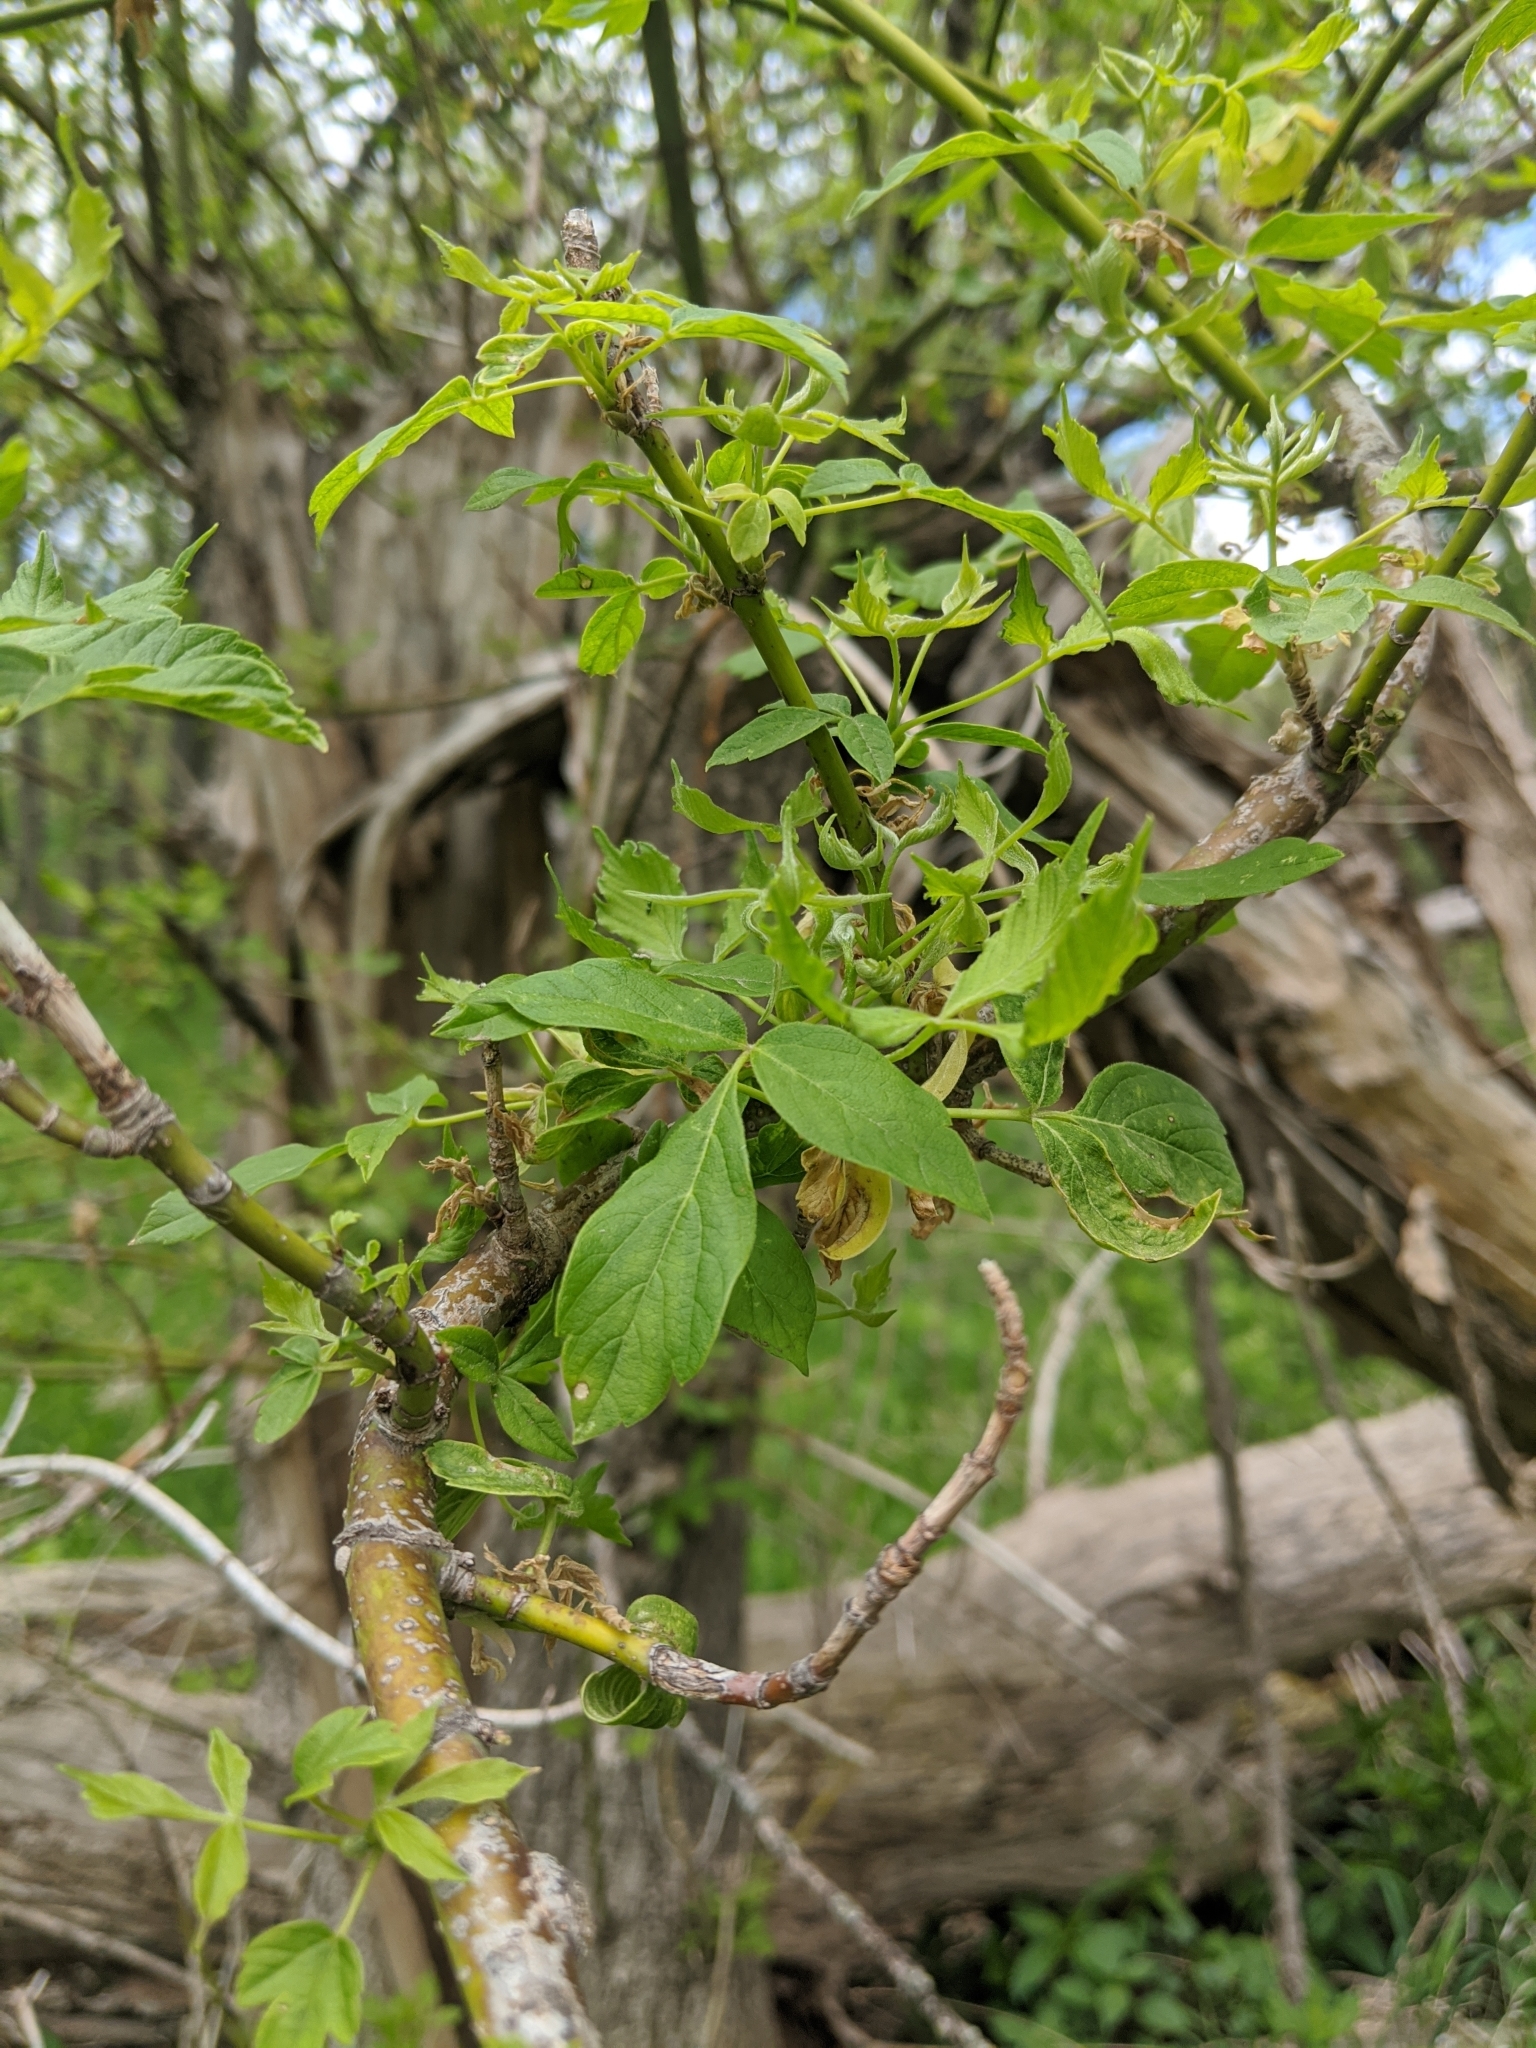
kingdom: Plantae
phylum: Tracheophyta
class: Magnoliopsida
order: Sapindales
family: Sapindaceae
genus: Acer
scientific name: Acer negundo
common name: Ashleaf maple
